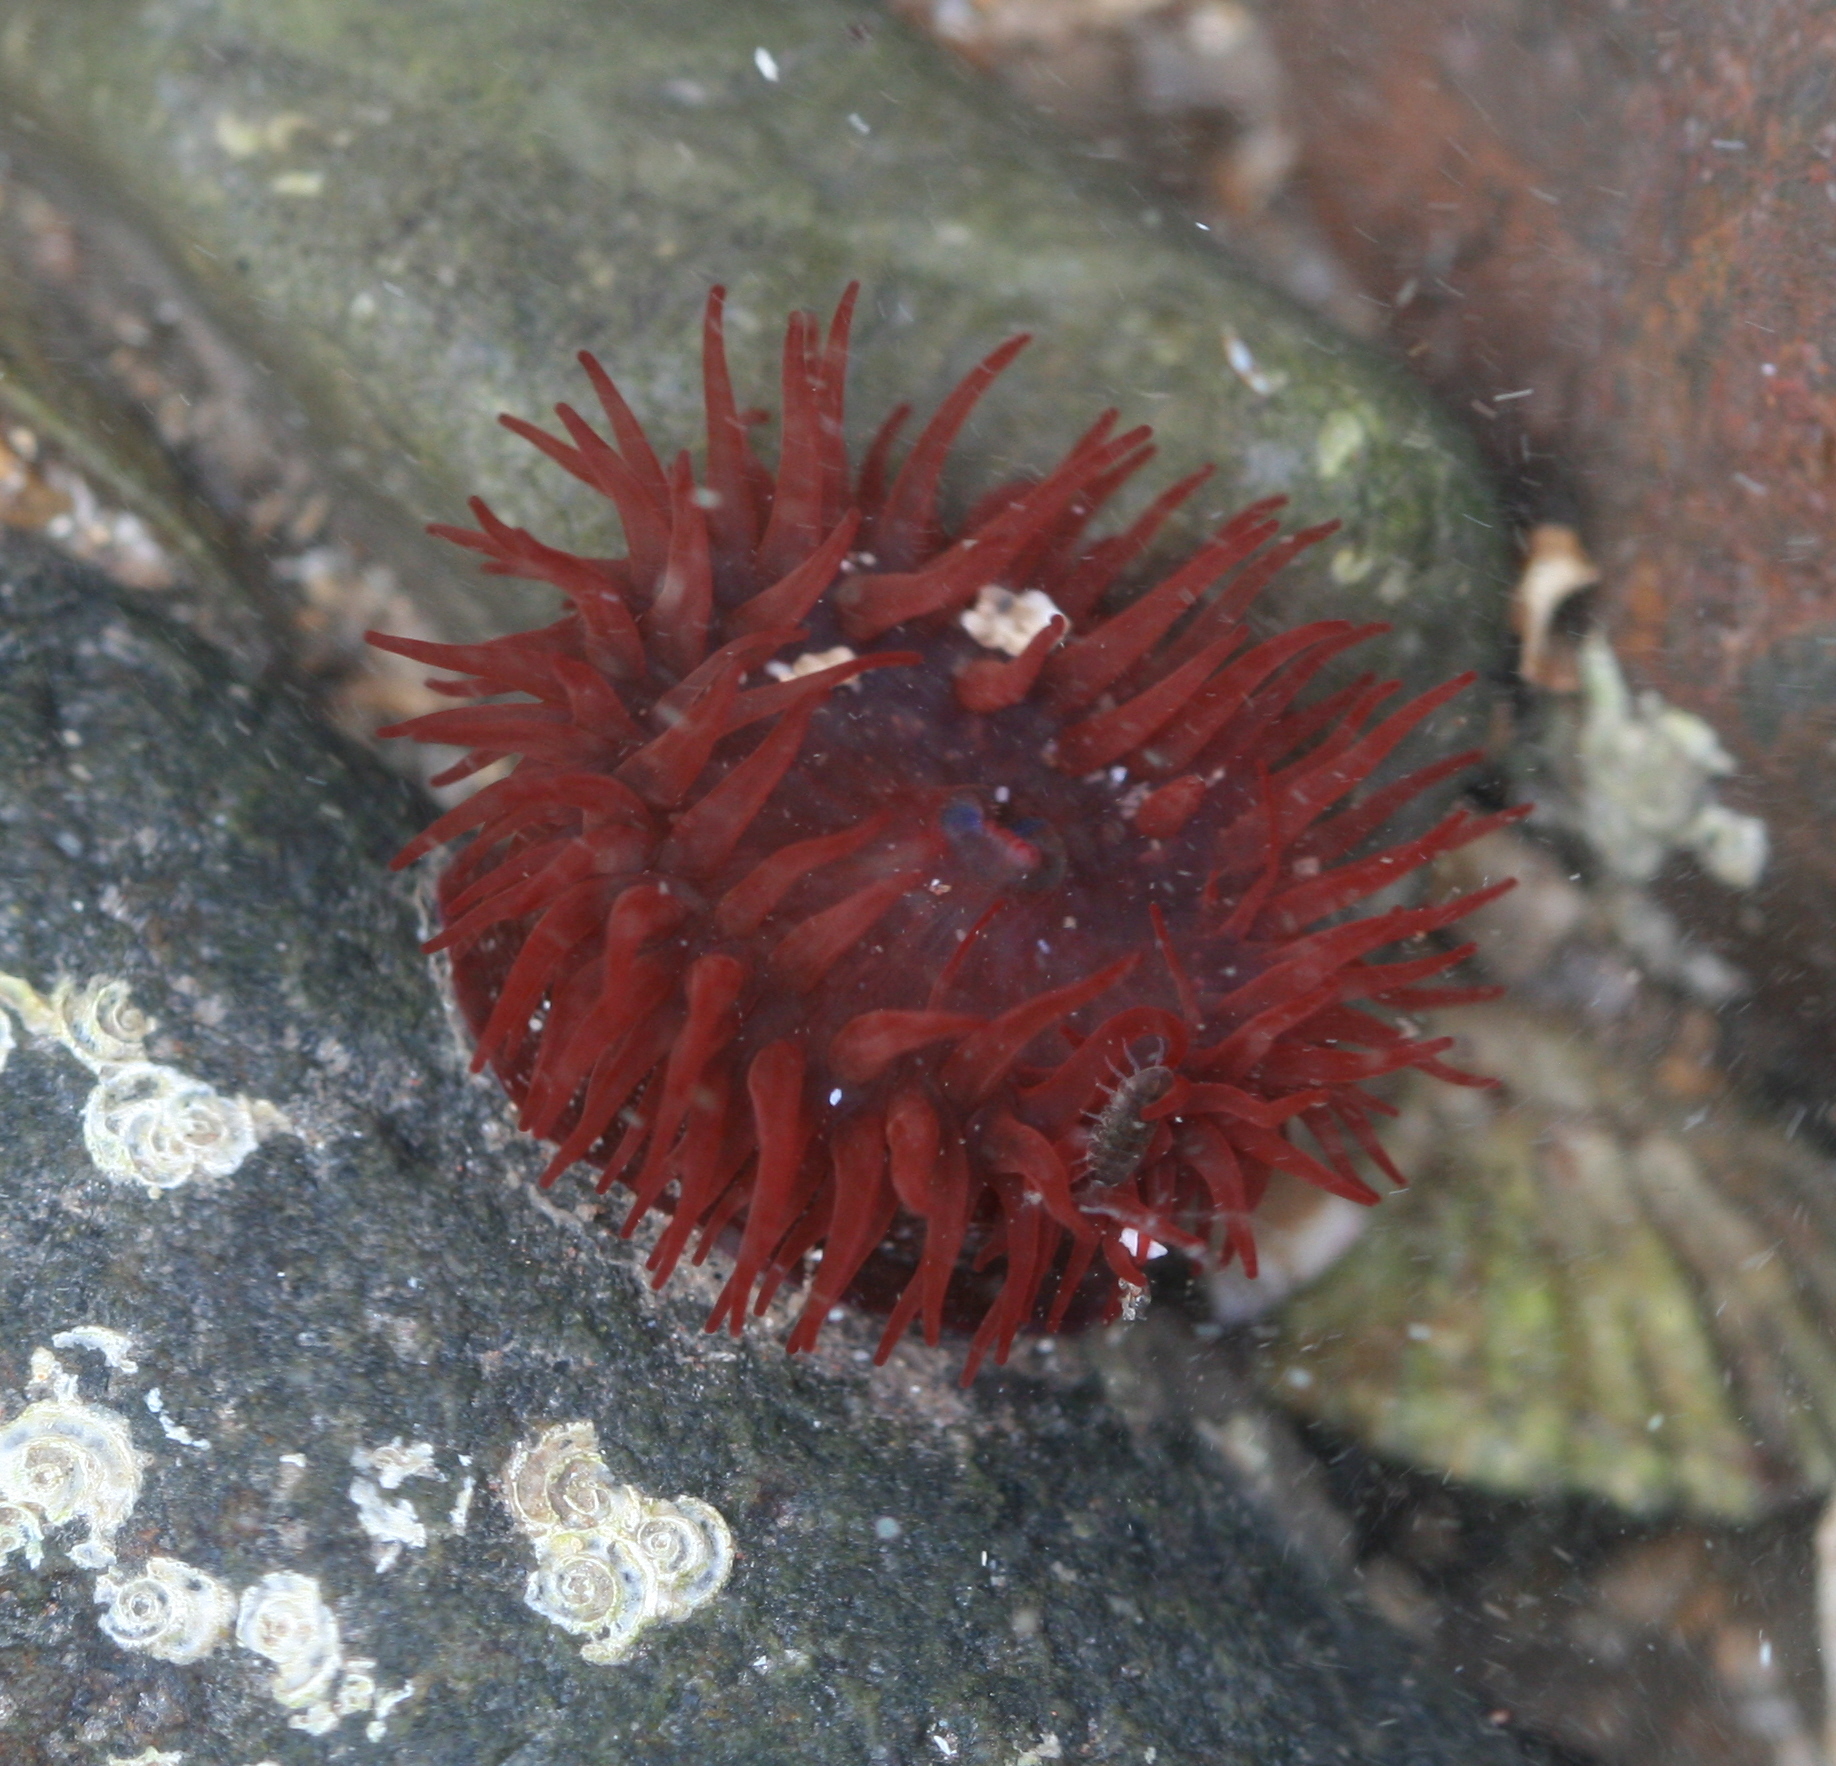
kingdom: Animalia
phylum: Cnidaria
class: Anthozoa
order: Actiniaria
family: Actiniidae
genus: Actinia
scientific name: Actinia equina
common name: Beadlet anemone
